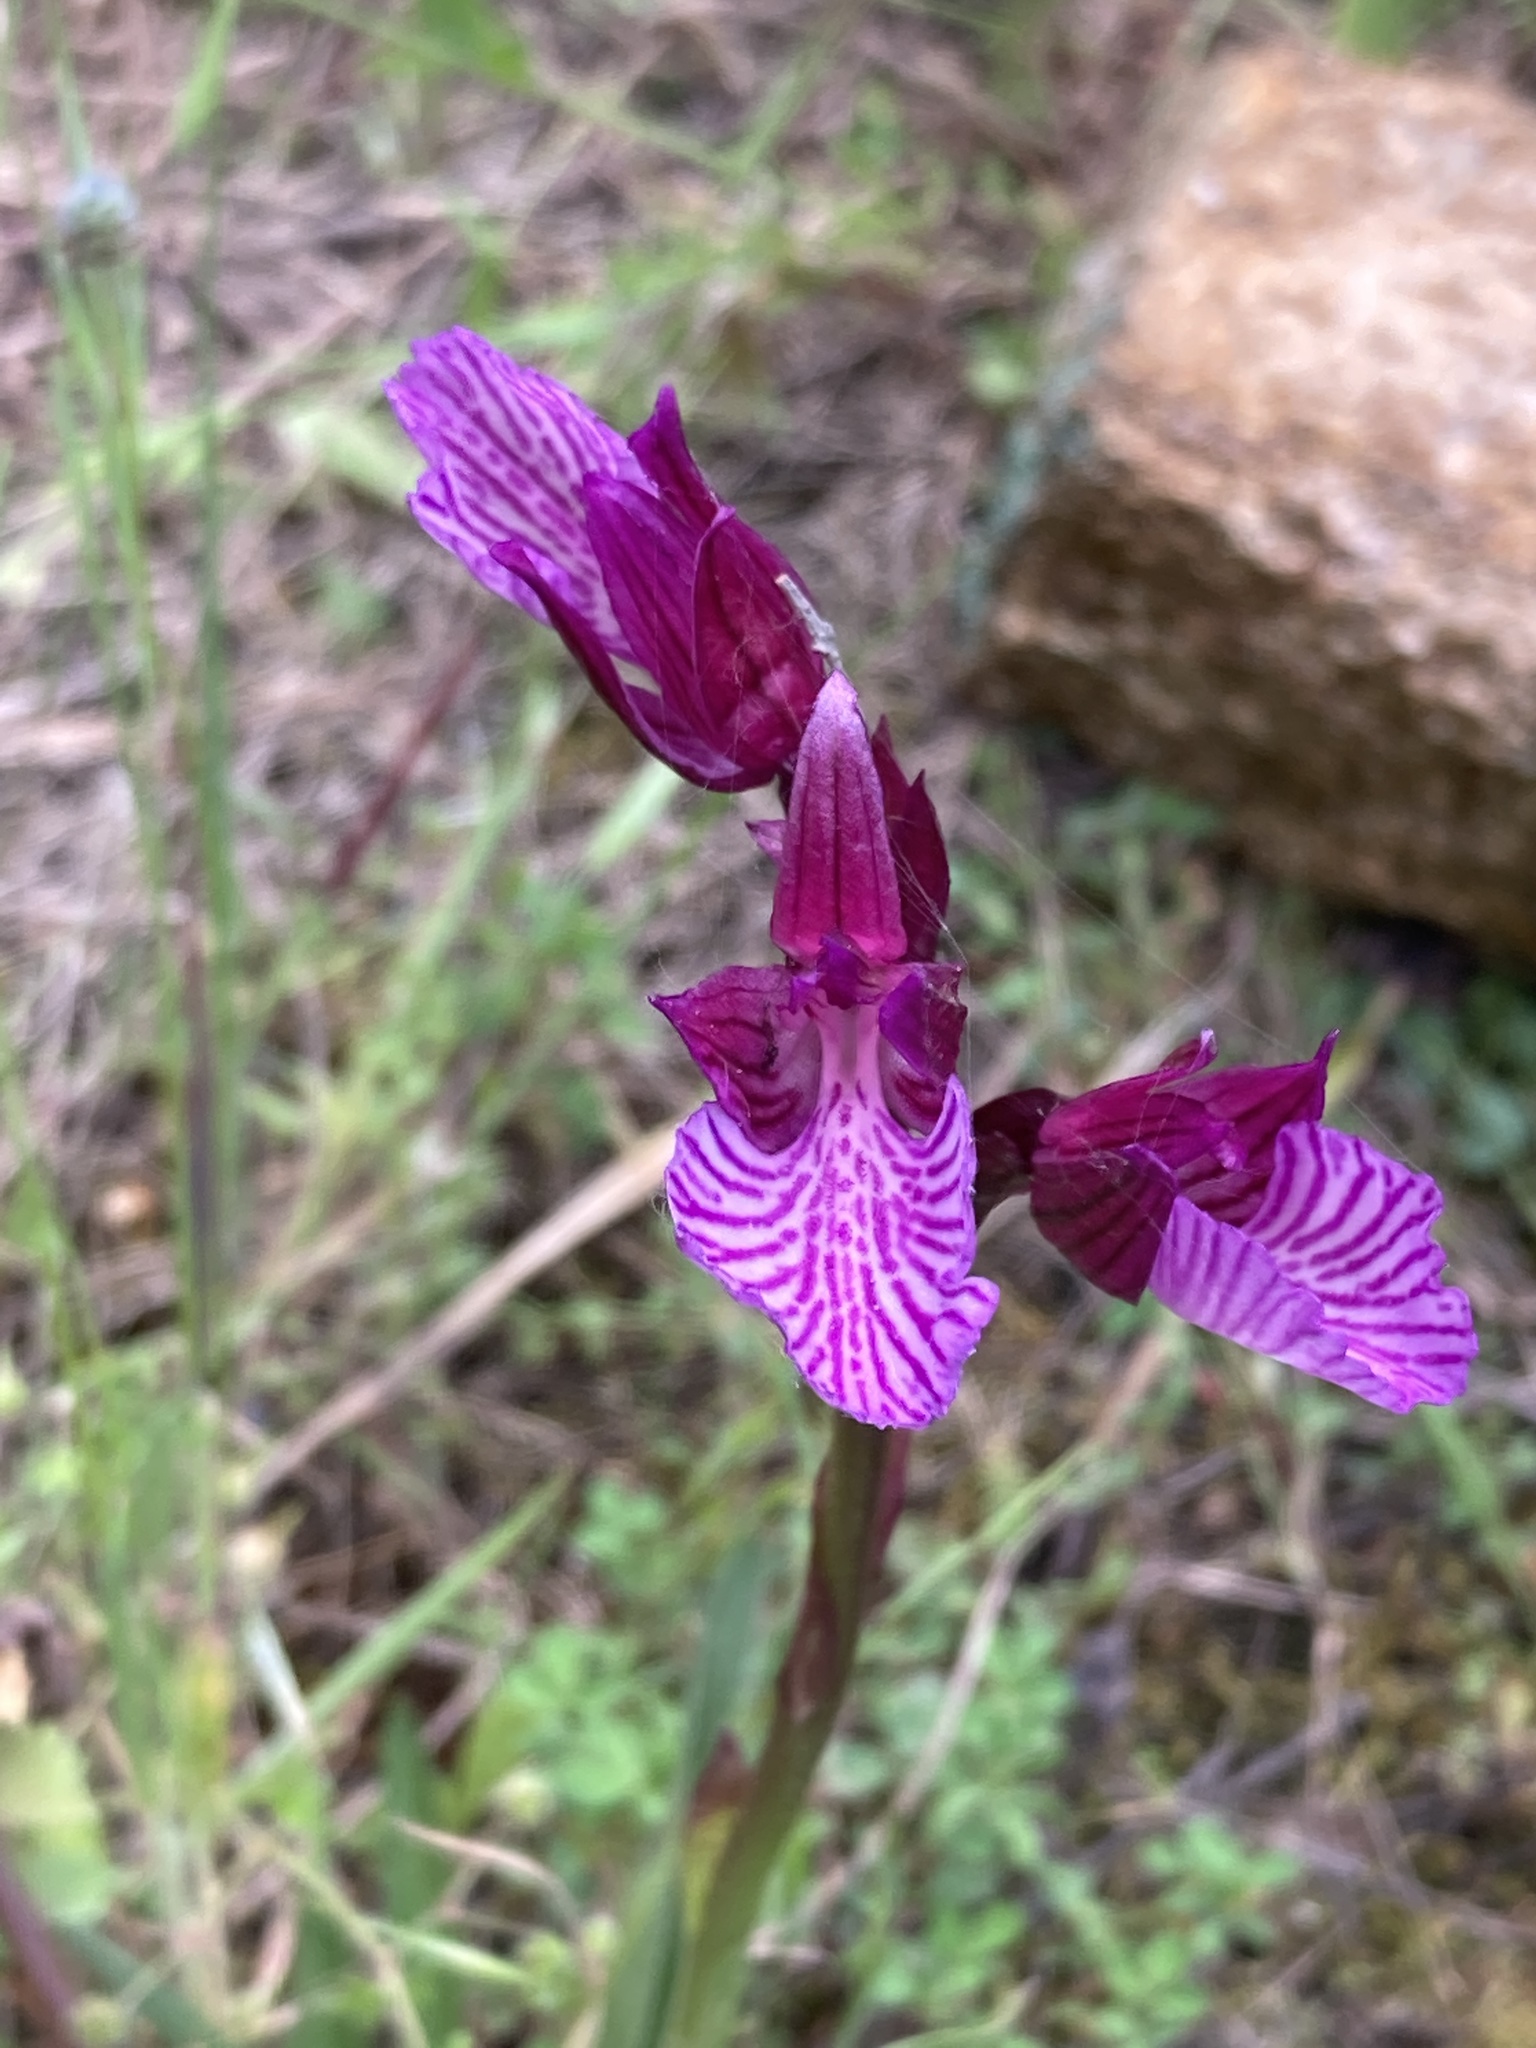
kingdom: Plantae
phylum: Tracheophyta
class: Liliopsida
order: Asparagales
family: Orchidaceae
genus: Anacamptis
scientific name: Anacamptis papilionacea
